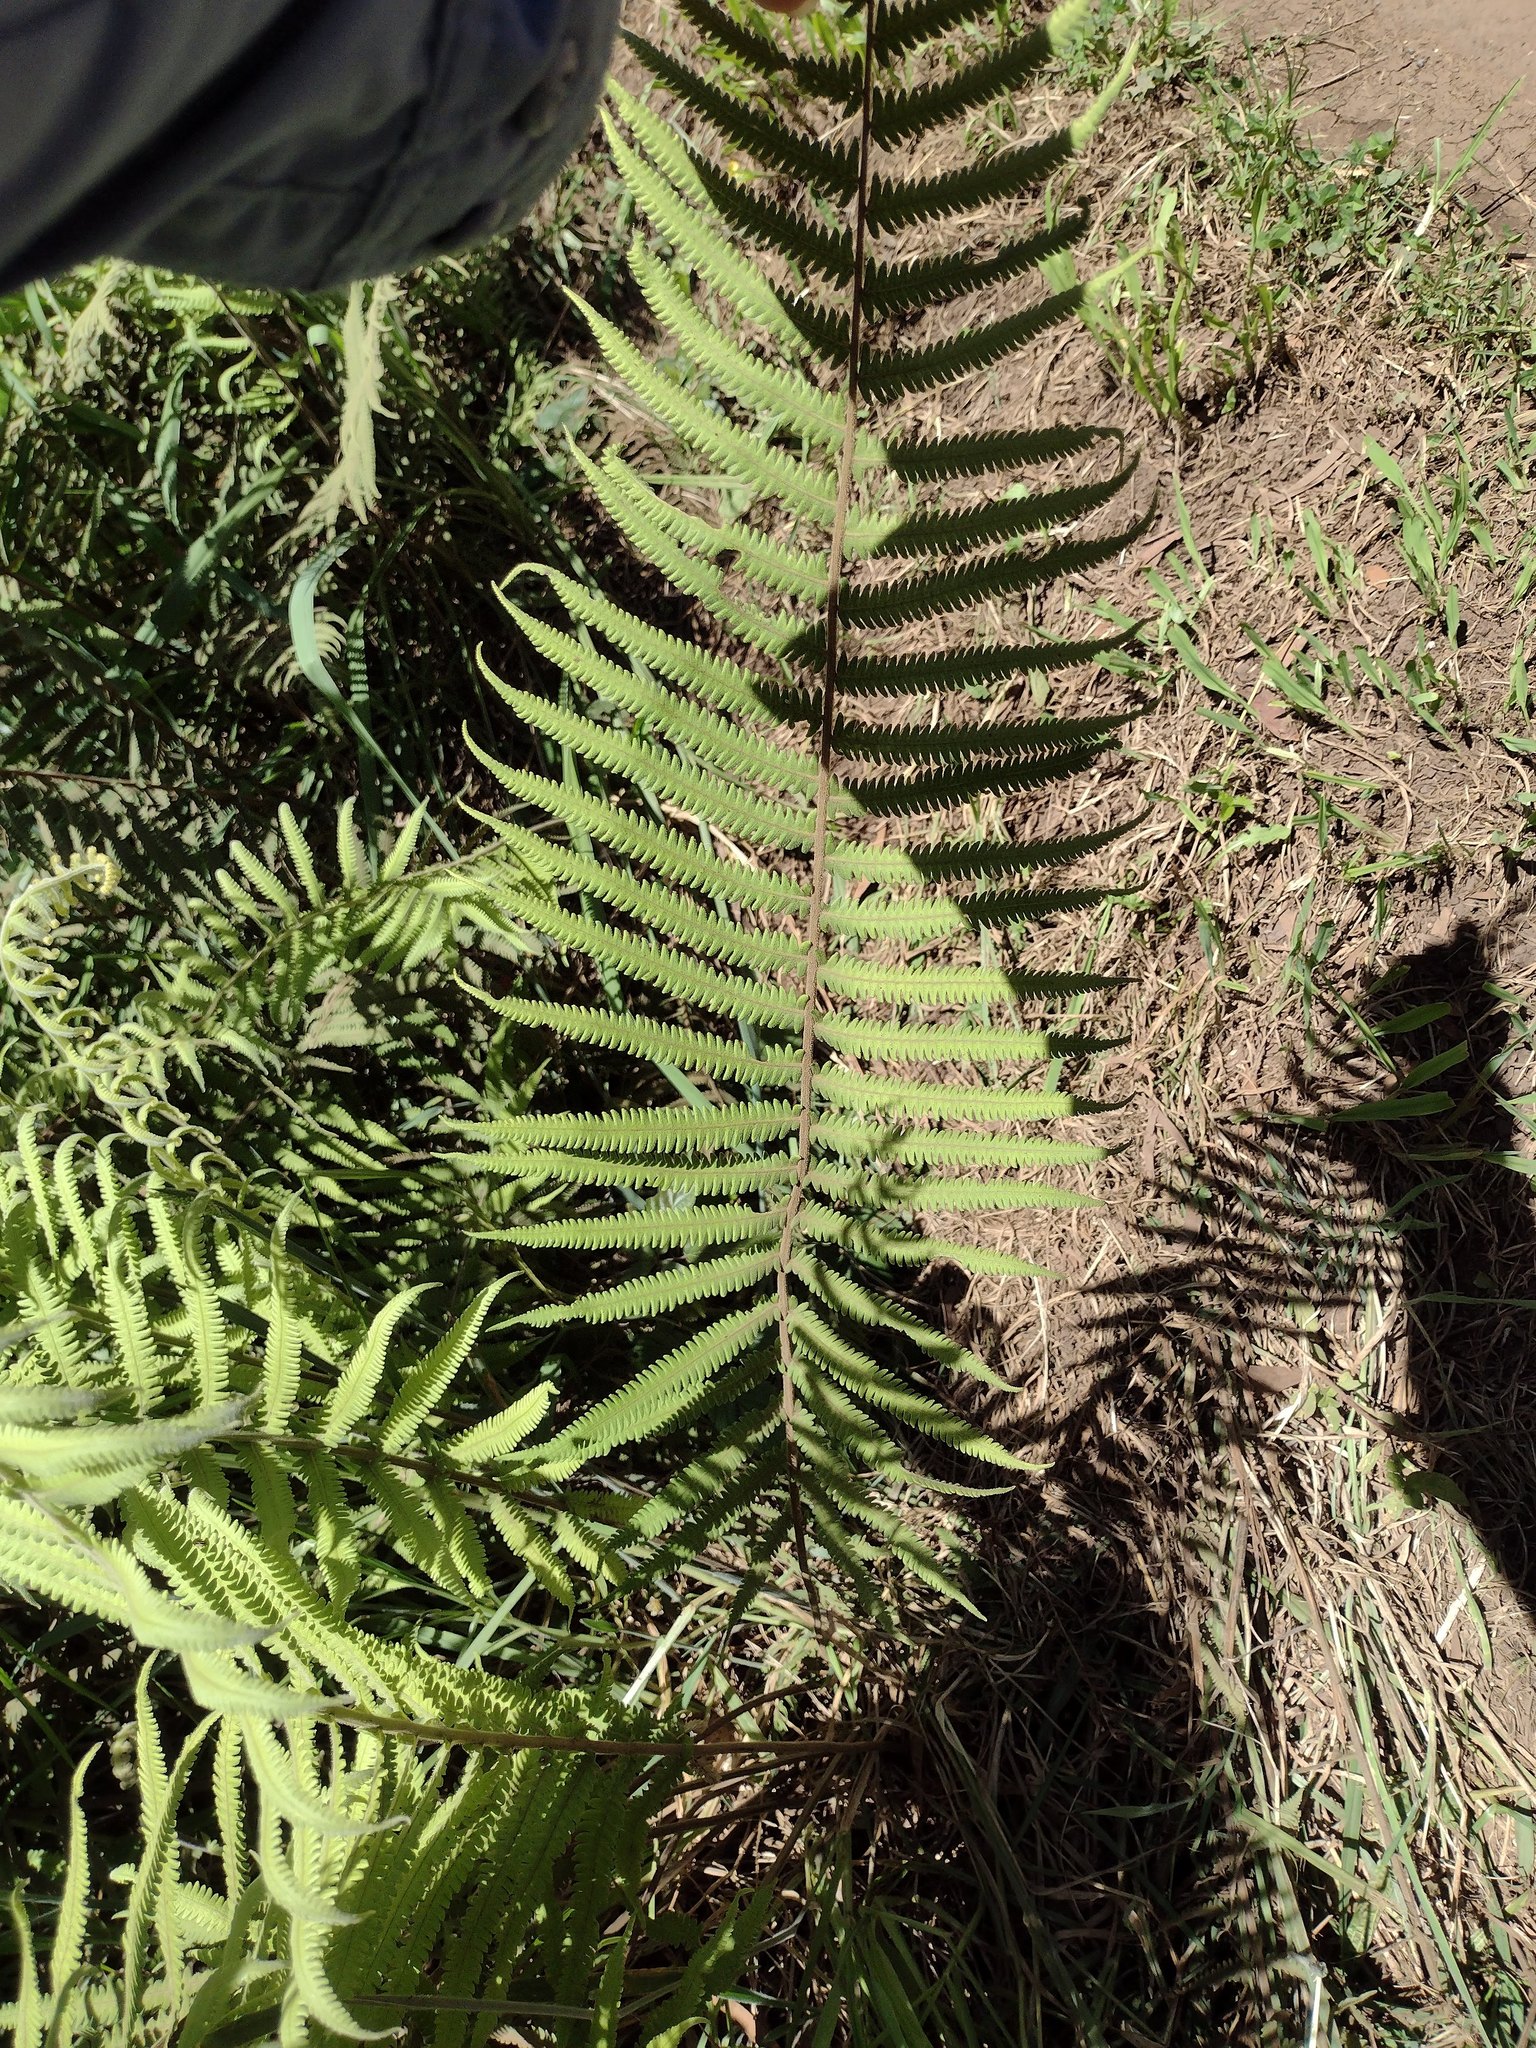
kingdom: Plantae
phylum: Tracheophyta
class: Polypodiopsida
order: Polypodiales
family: Thelypteridaceae
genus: Christella
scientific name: Christella parasitica
